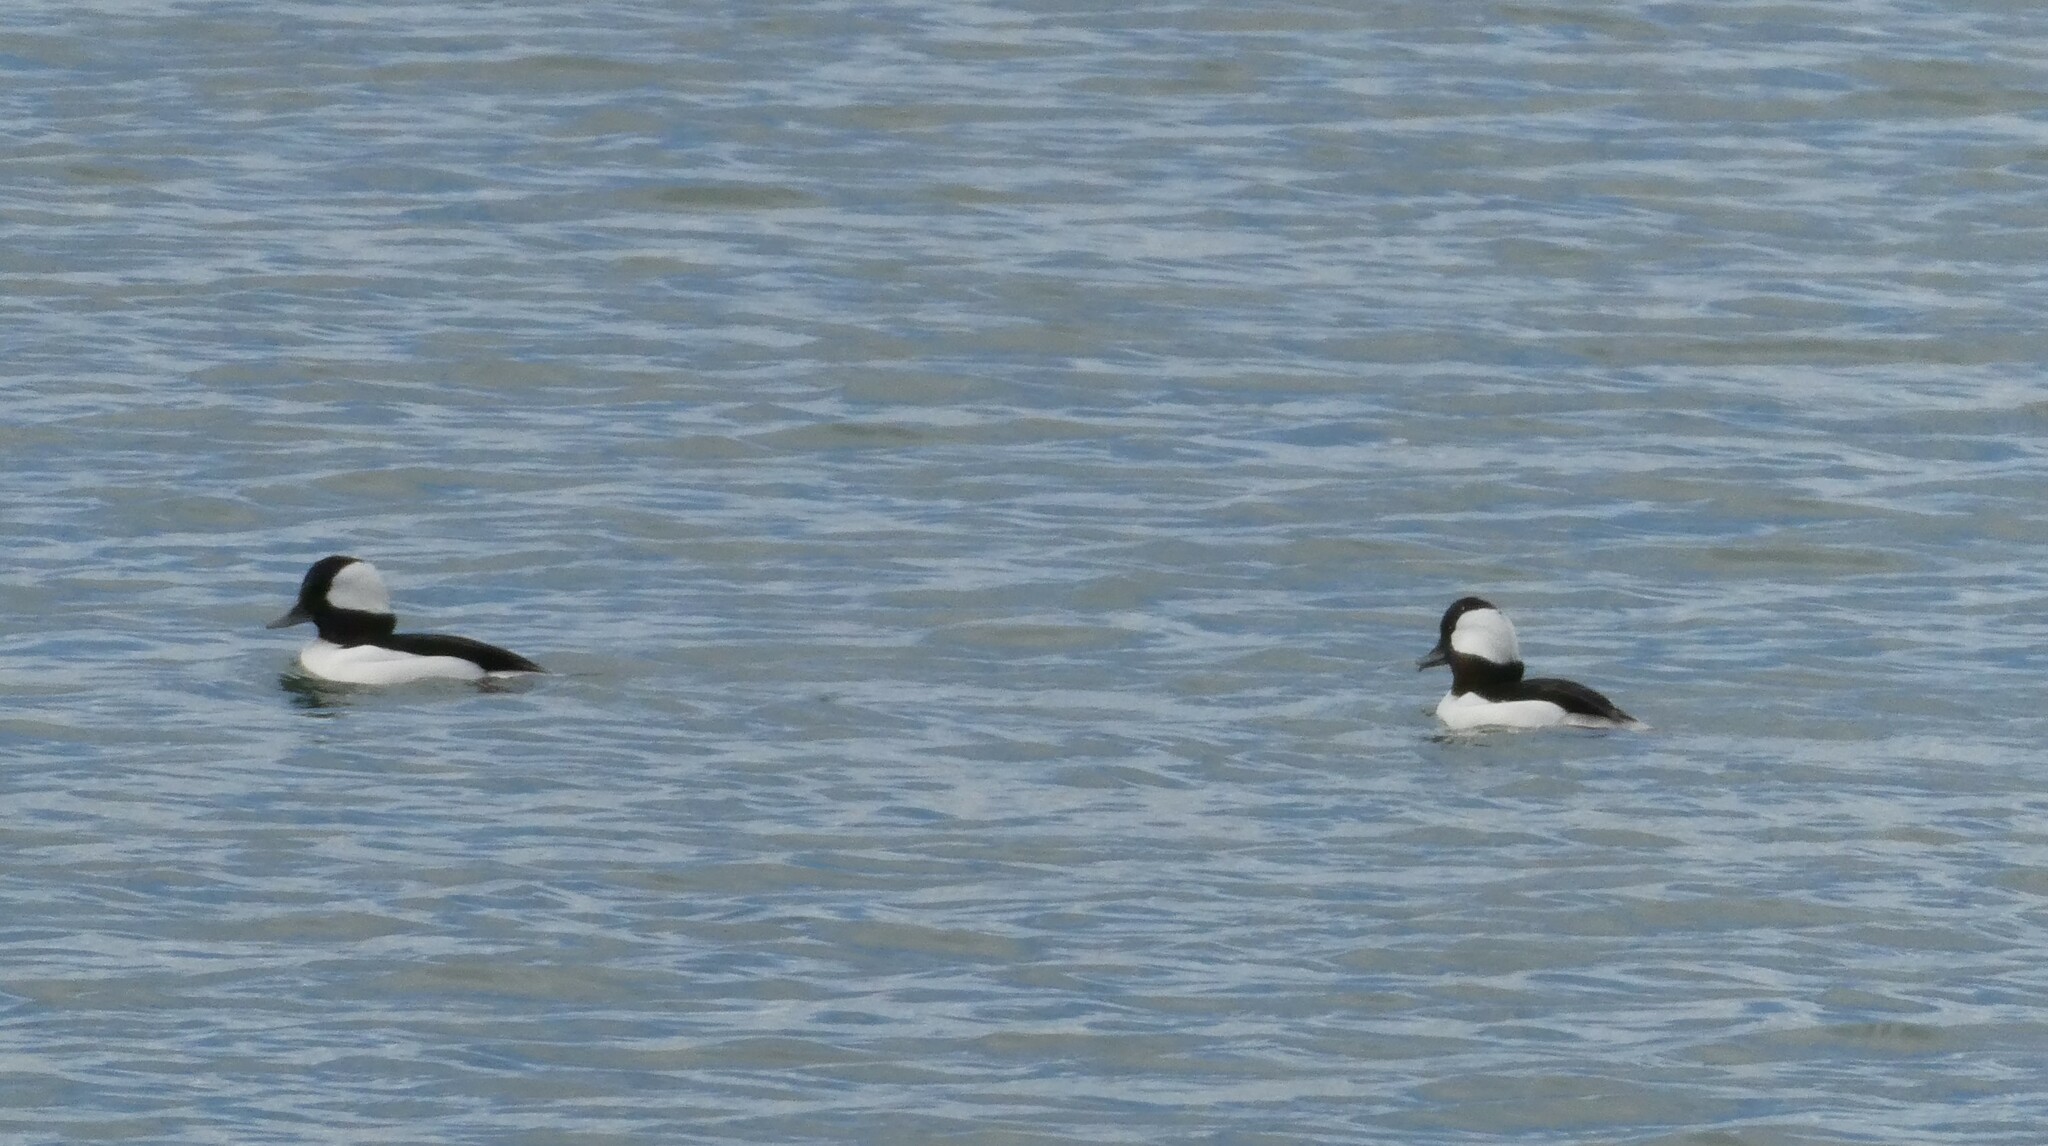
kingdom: Animalia
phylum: Chordata
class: Aves
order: Anseriformes
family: Anatidae
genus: Bucephala
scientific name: Bucephala albeola
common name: Bufflehead
